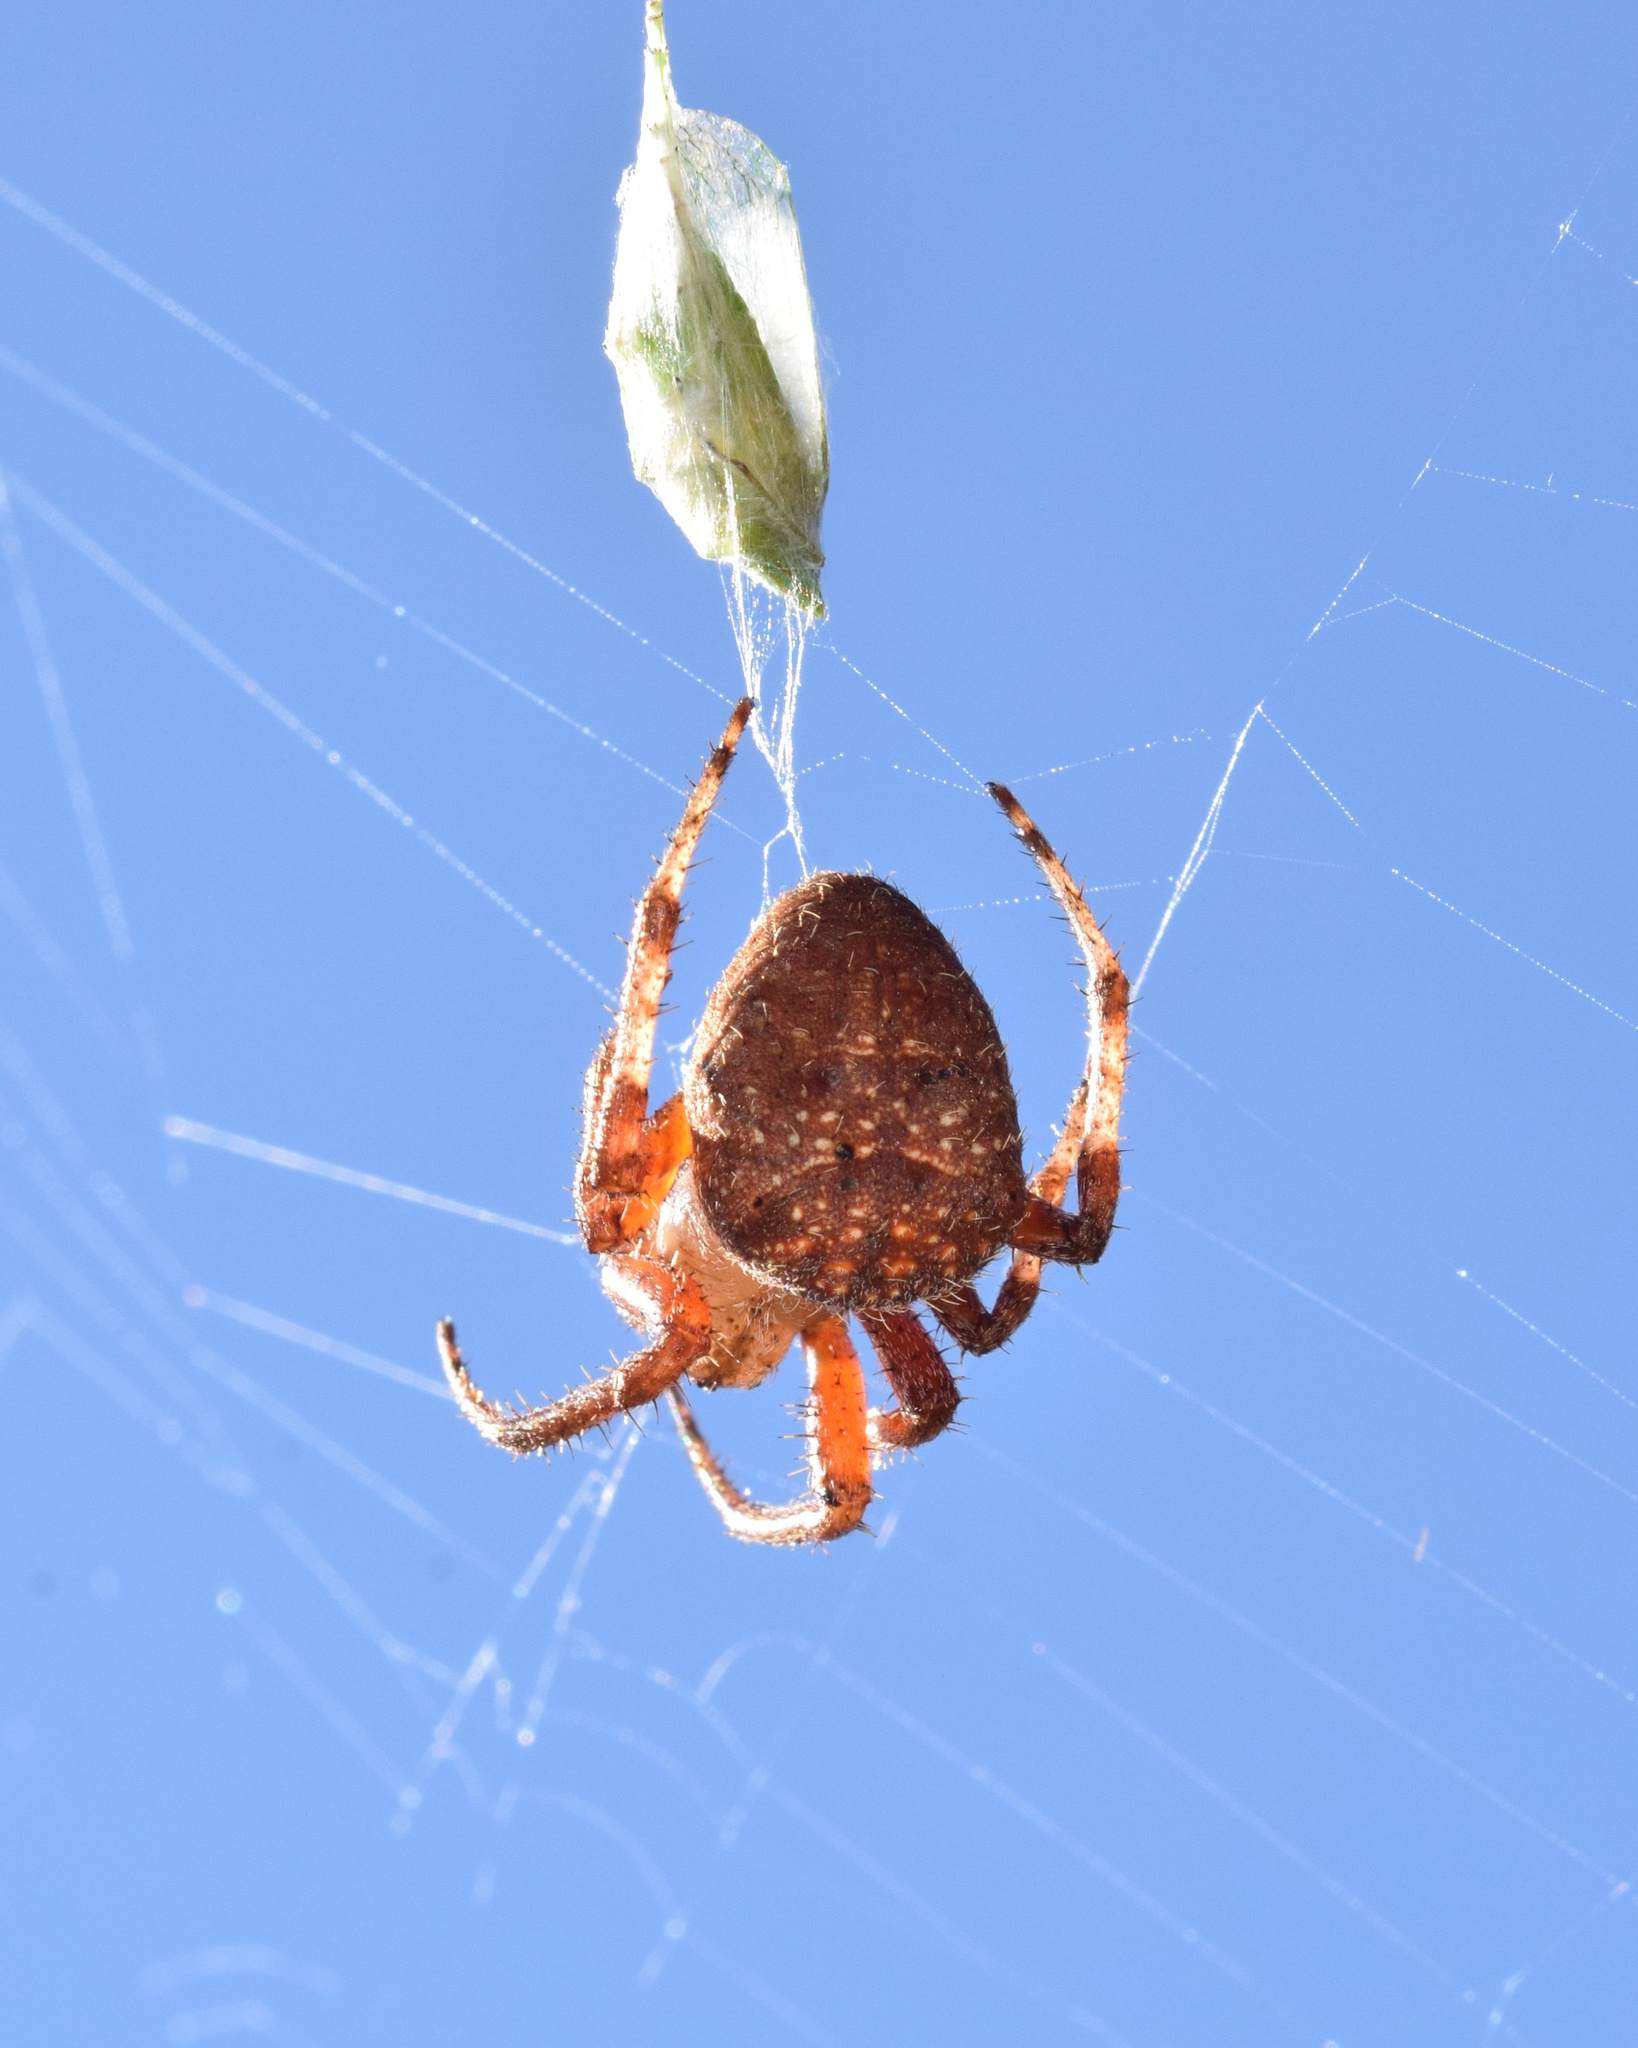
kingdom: Animalia
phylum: Arthropoda
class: Arachnida
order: Araneae
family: Araneidae
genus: Neoscona
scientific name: Neoscona penicillipes
